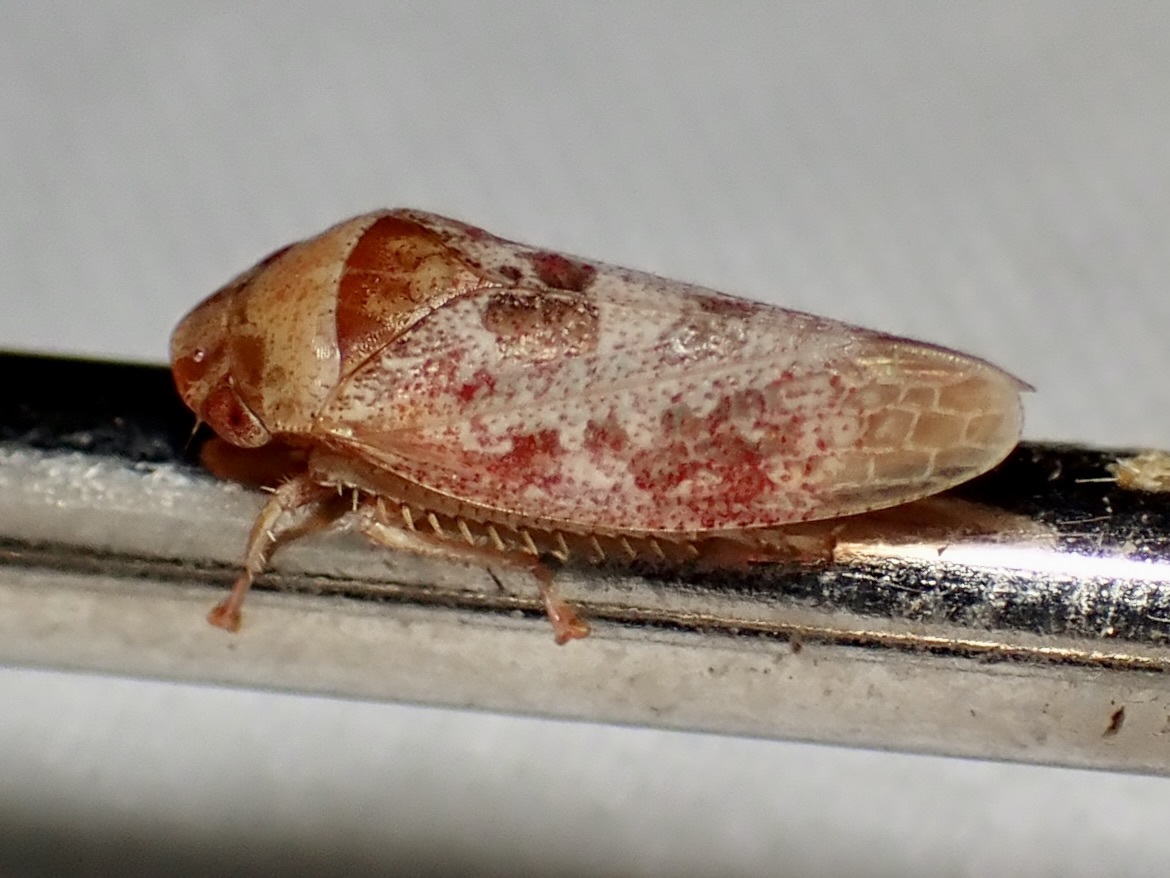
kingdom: Animalia
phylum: Arthropoda
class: Insecta
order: Hemiptera
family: Cicadellidae
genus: Dragonana
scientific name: Dragonana dracontea
